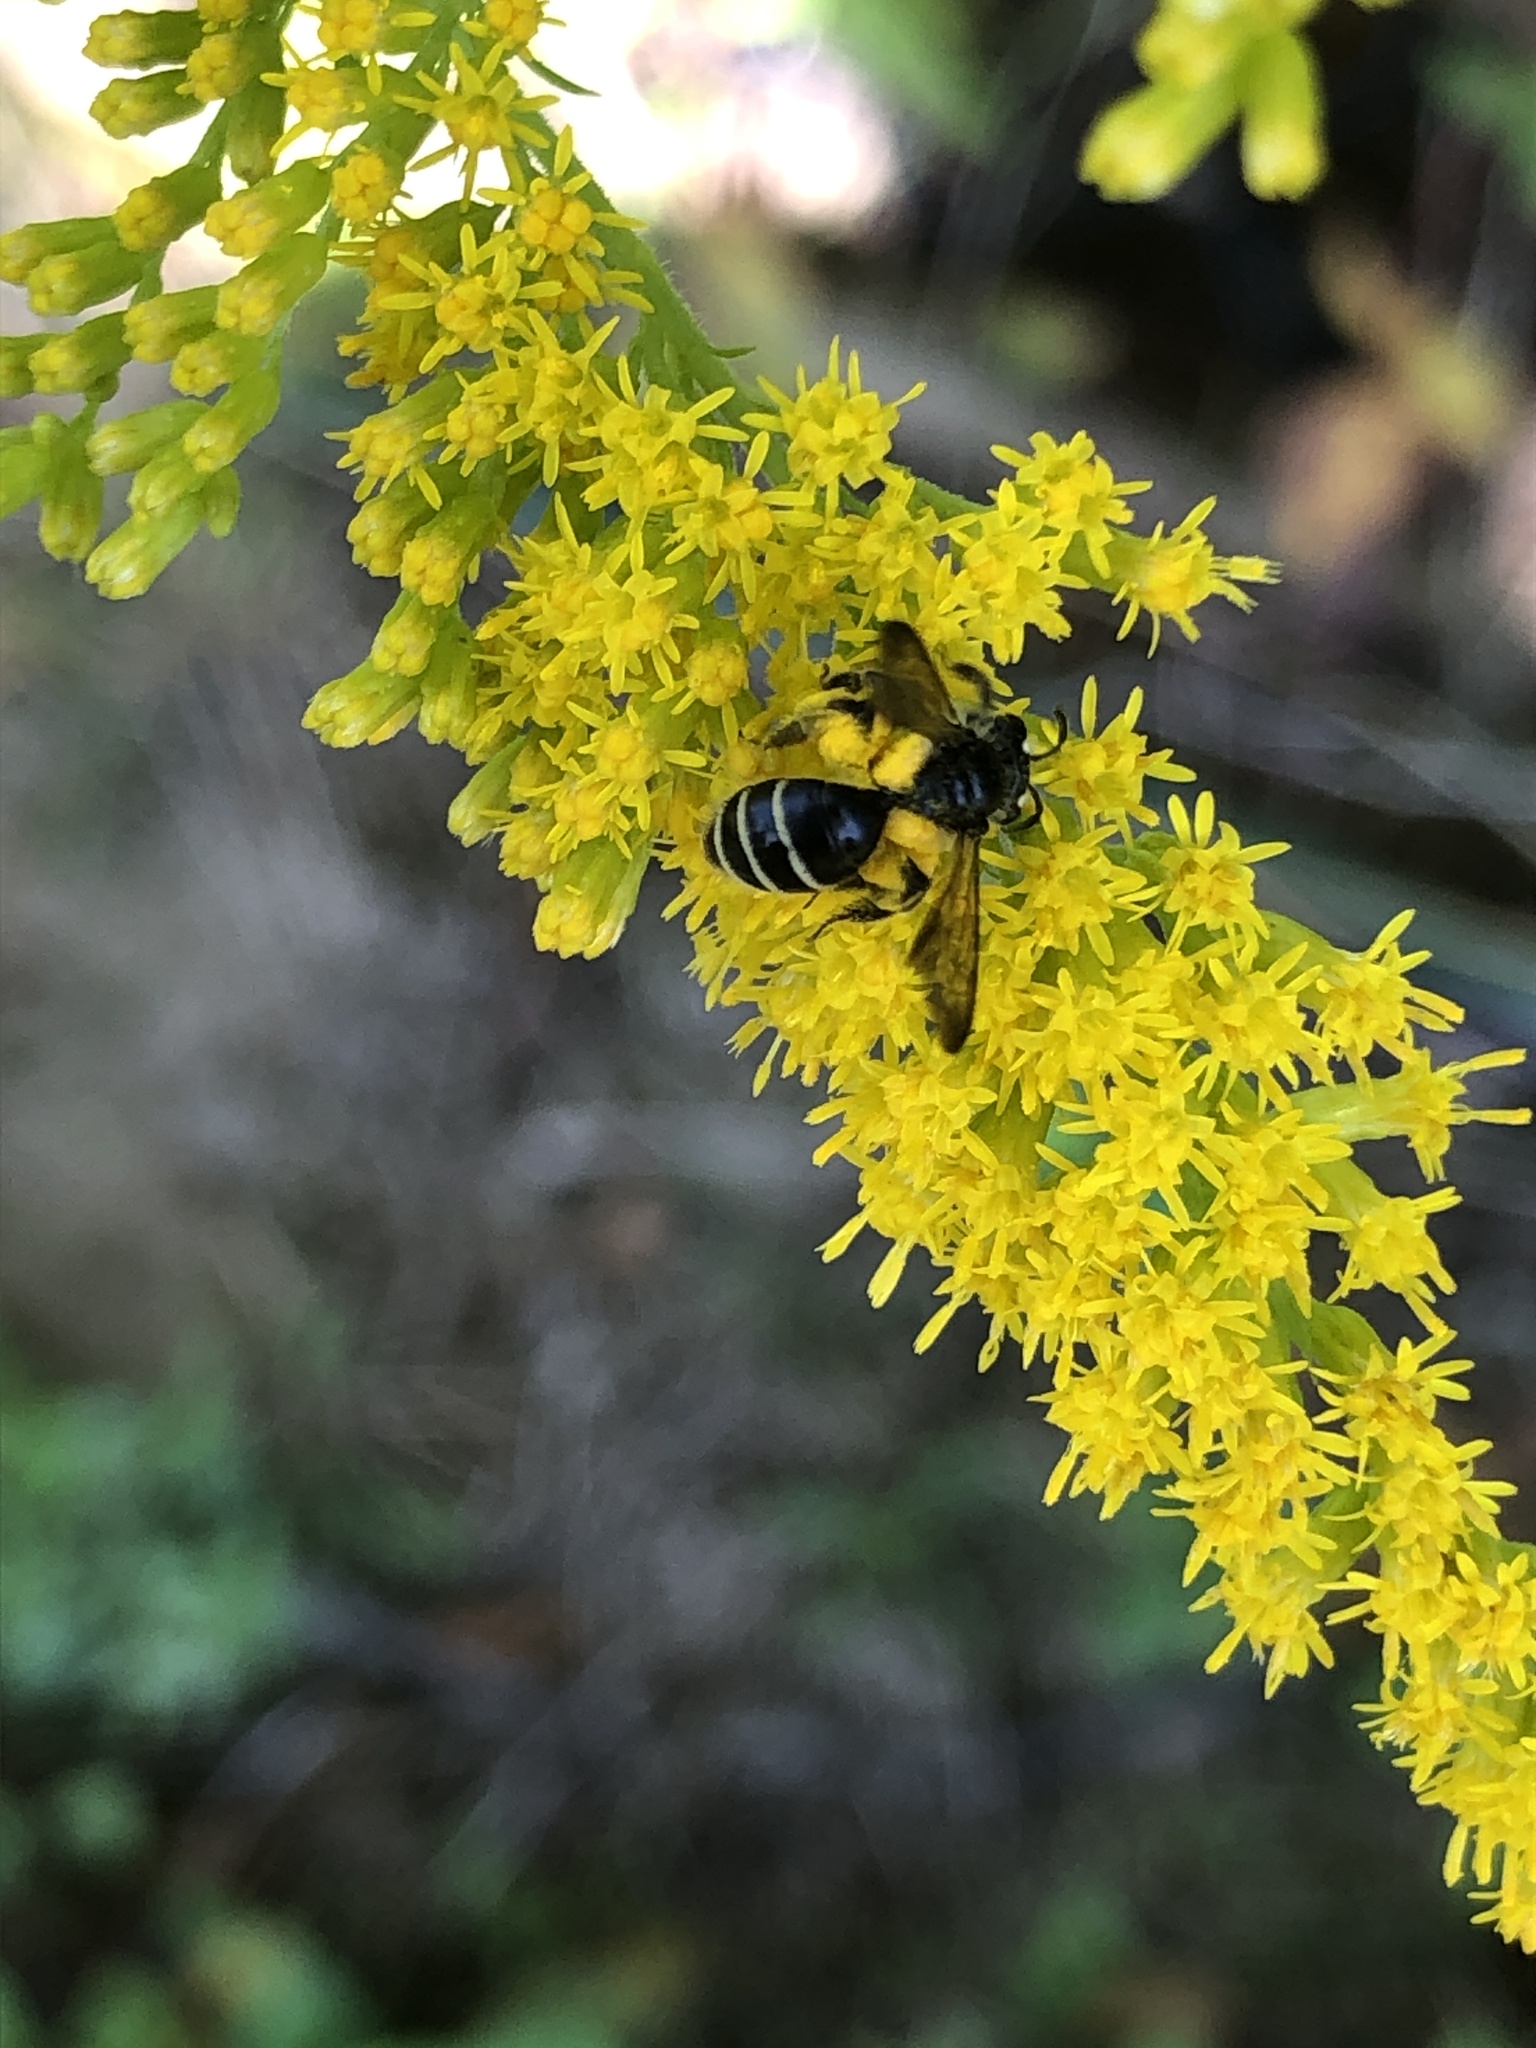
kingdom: Animalia
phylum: Arthropoda
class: Insecta
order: Hymenoptera
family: Andrenidae
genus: Andrena
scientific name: Andrena nubecula
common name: Cloudy-winged mining bee
